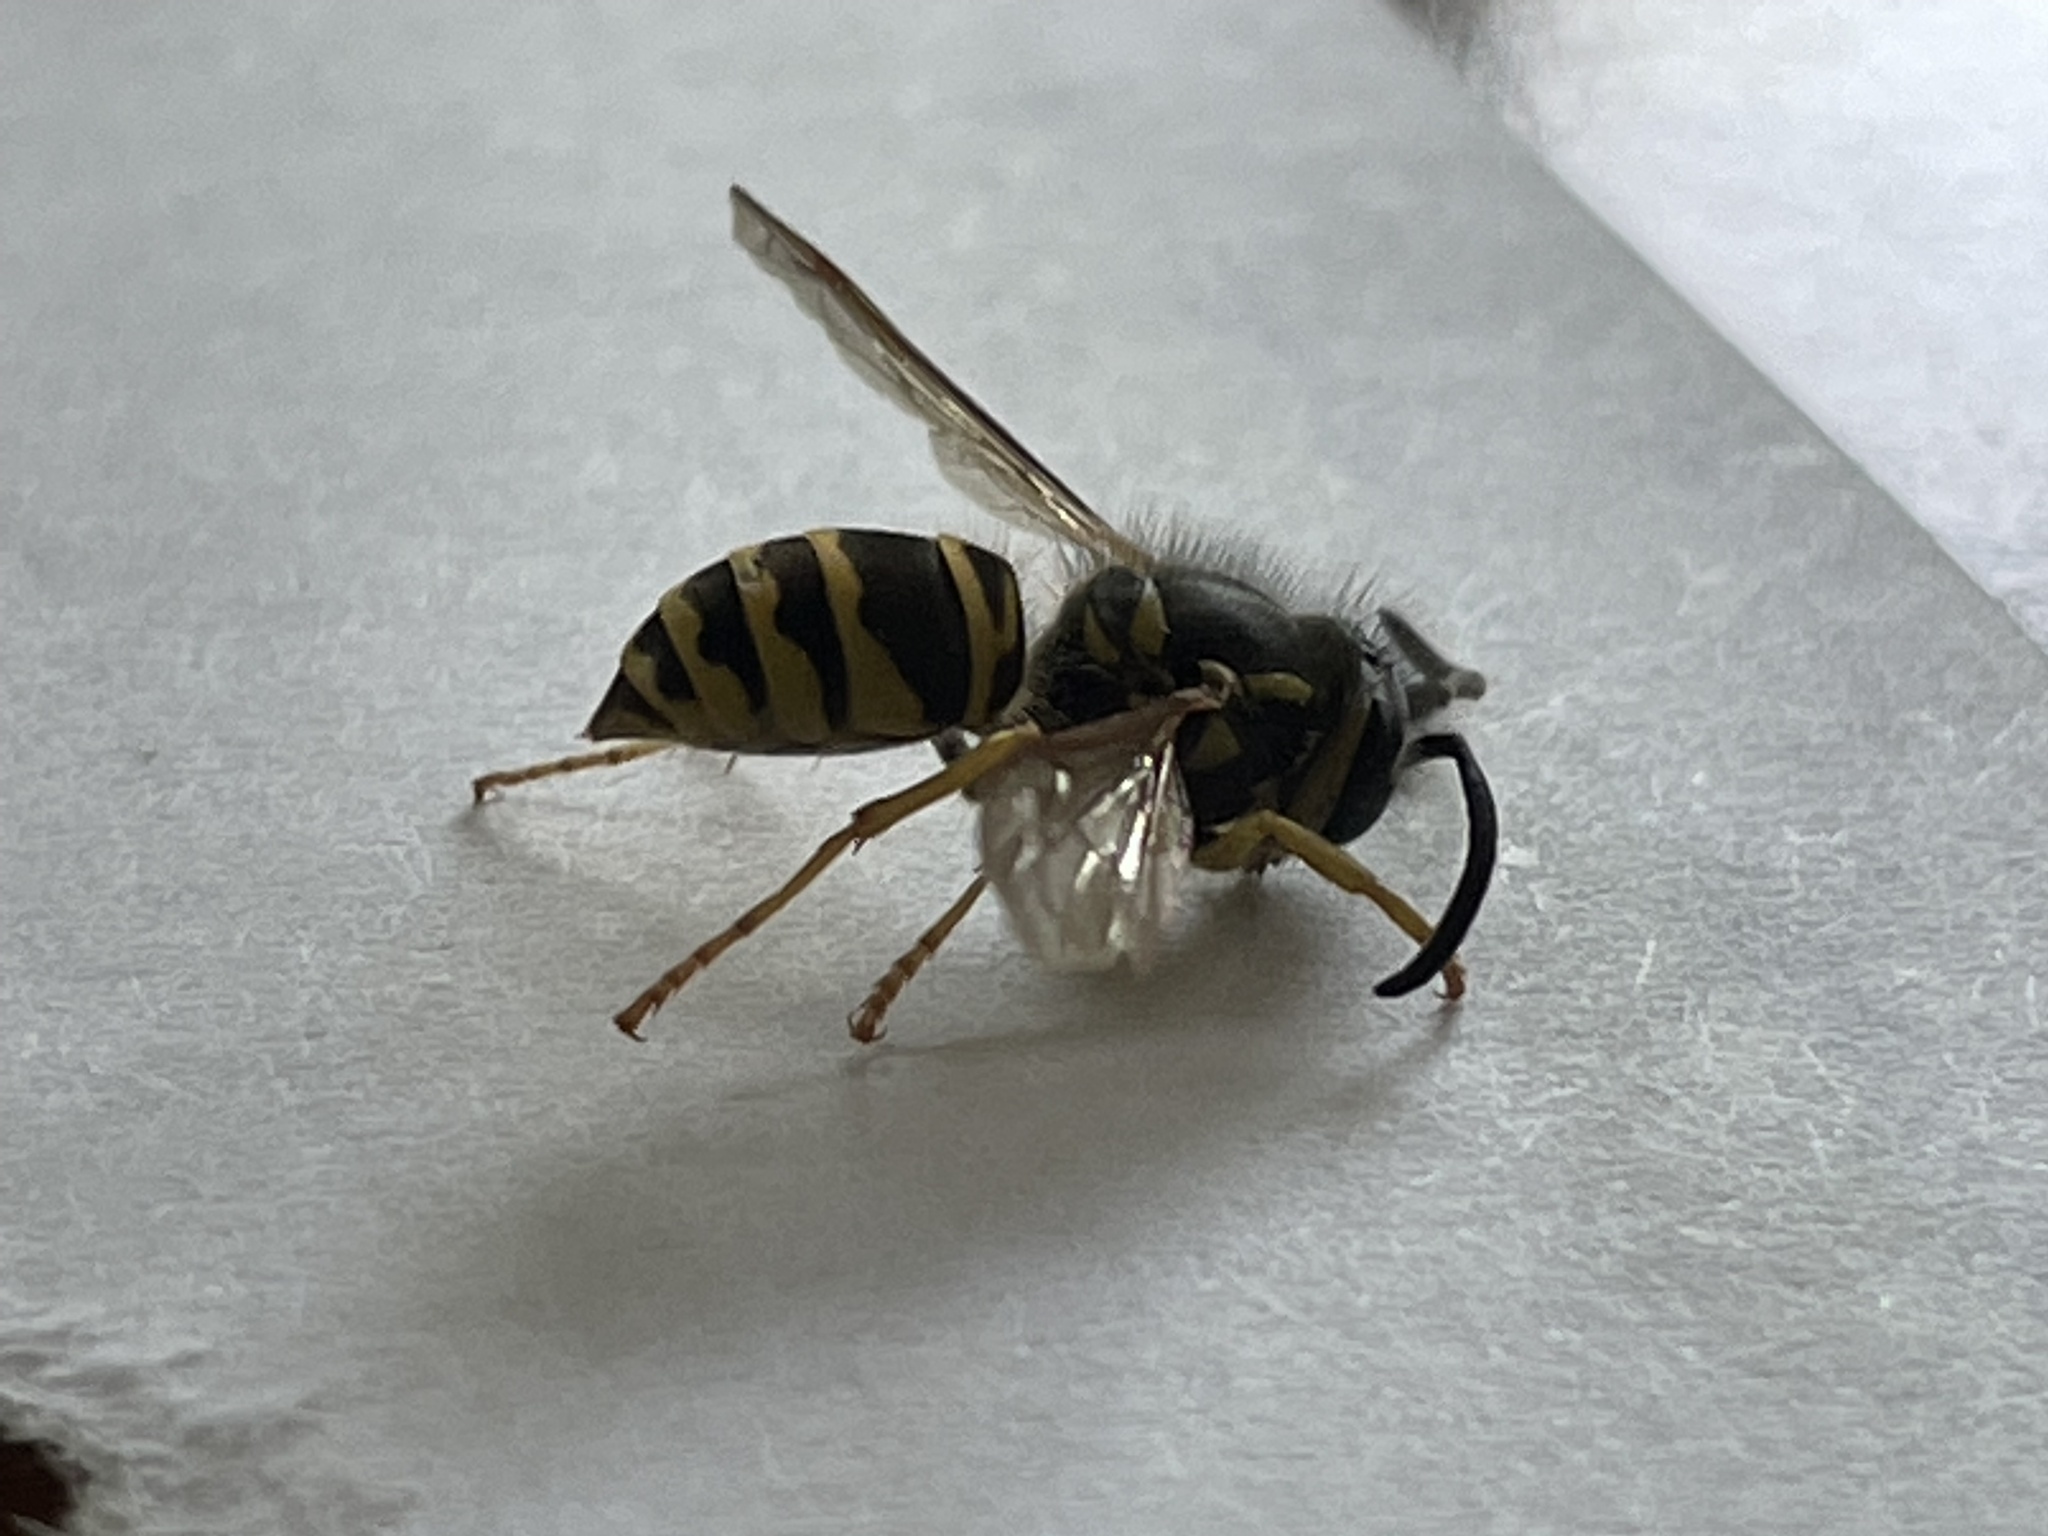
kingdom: Animalia
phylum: Arthropoda
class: Insecta
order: Hymenoptera
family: Vespidae
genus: Vespula
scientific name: Vespula maculifrons
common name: Eastern yellowjacket
